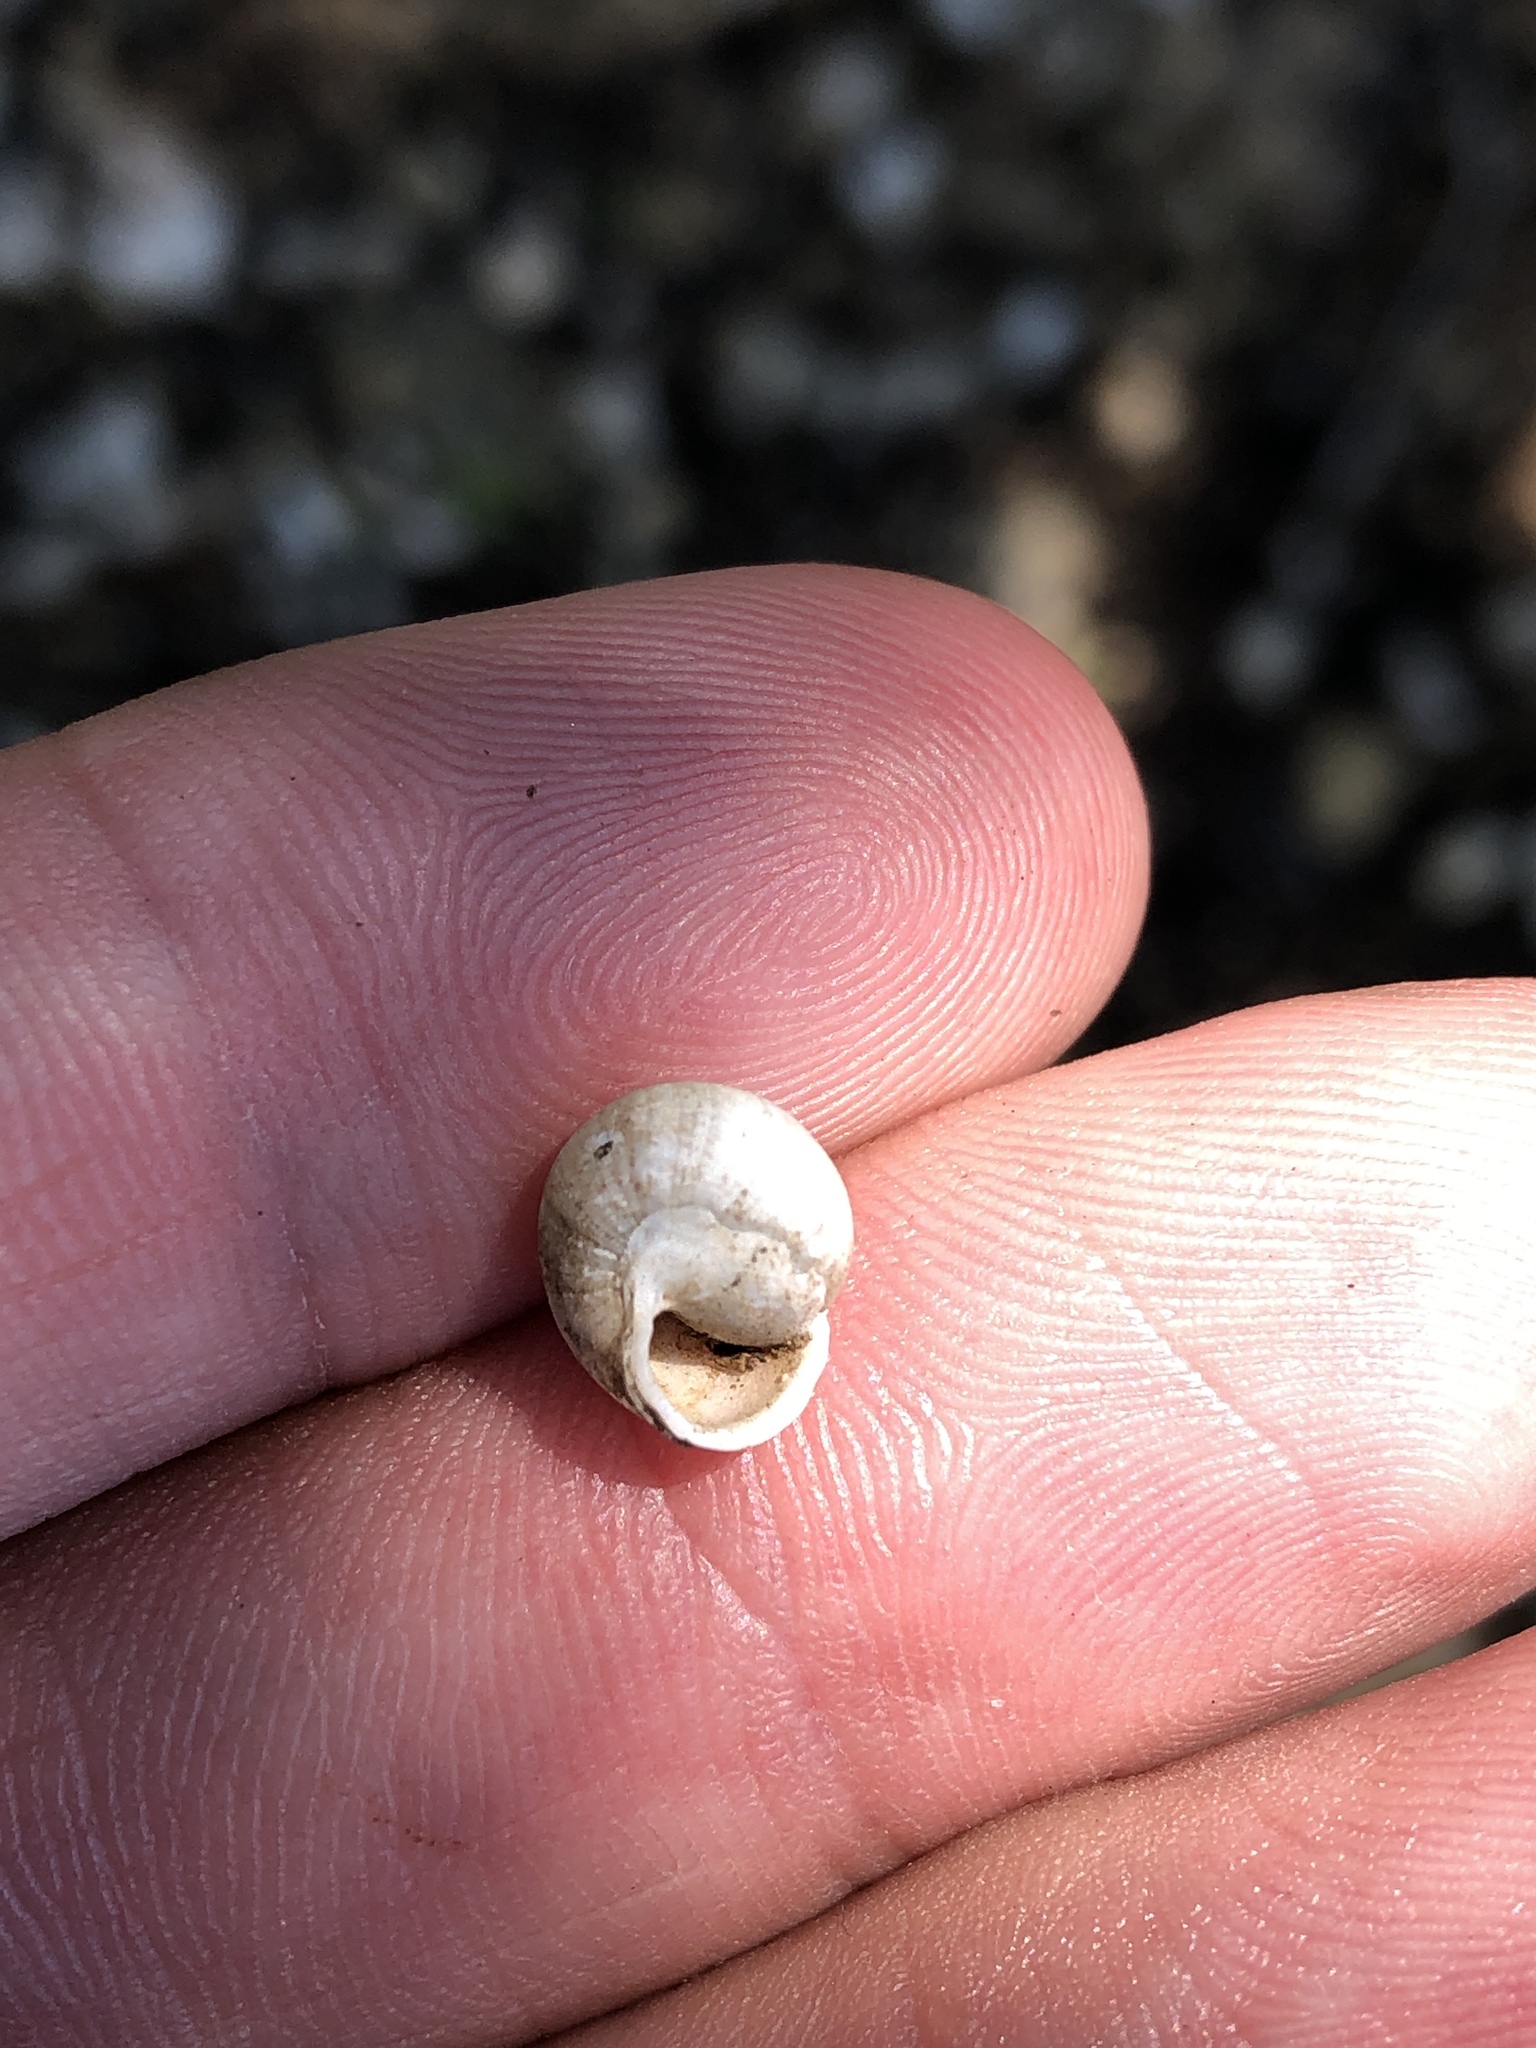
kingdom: Animalia
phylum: Mollusca
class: Gastropoda
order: Cycloneritida
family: Helicinidae
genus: Helicina
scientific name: Helicina orbiculata
